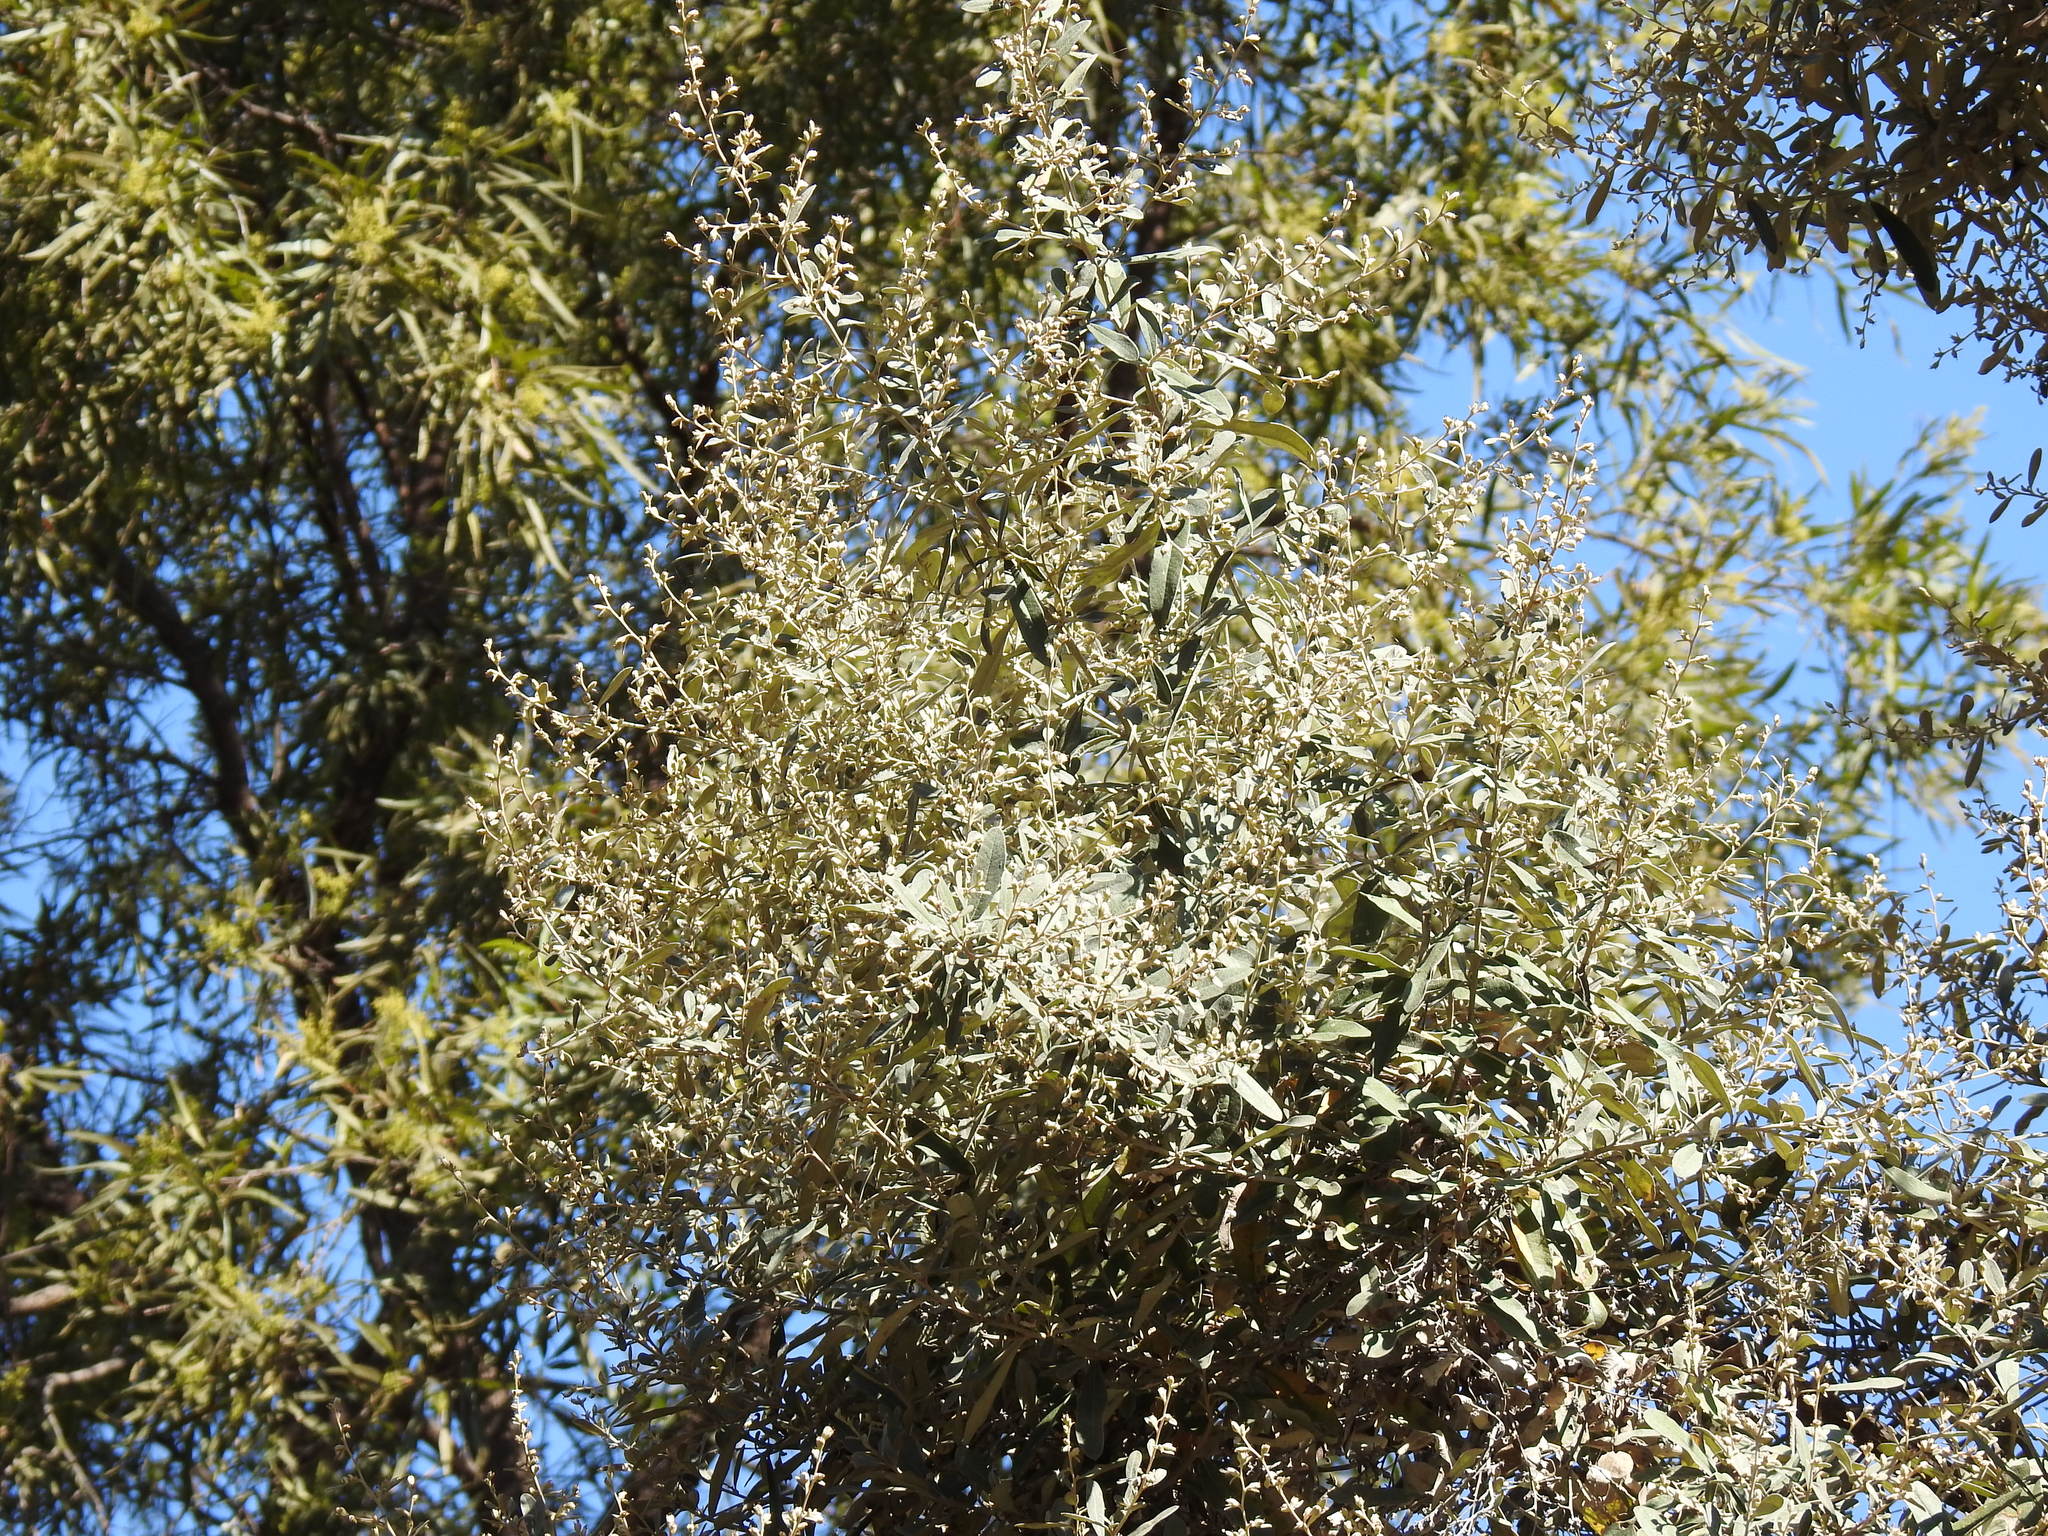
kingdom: Plantae
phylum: Tracheophyta
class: Magnoliopsida
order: Asterales
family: Asteraceae
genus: Tarchonanthus
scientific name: Tarchonanthus camphoratus
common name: Camphorwood
